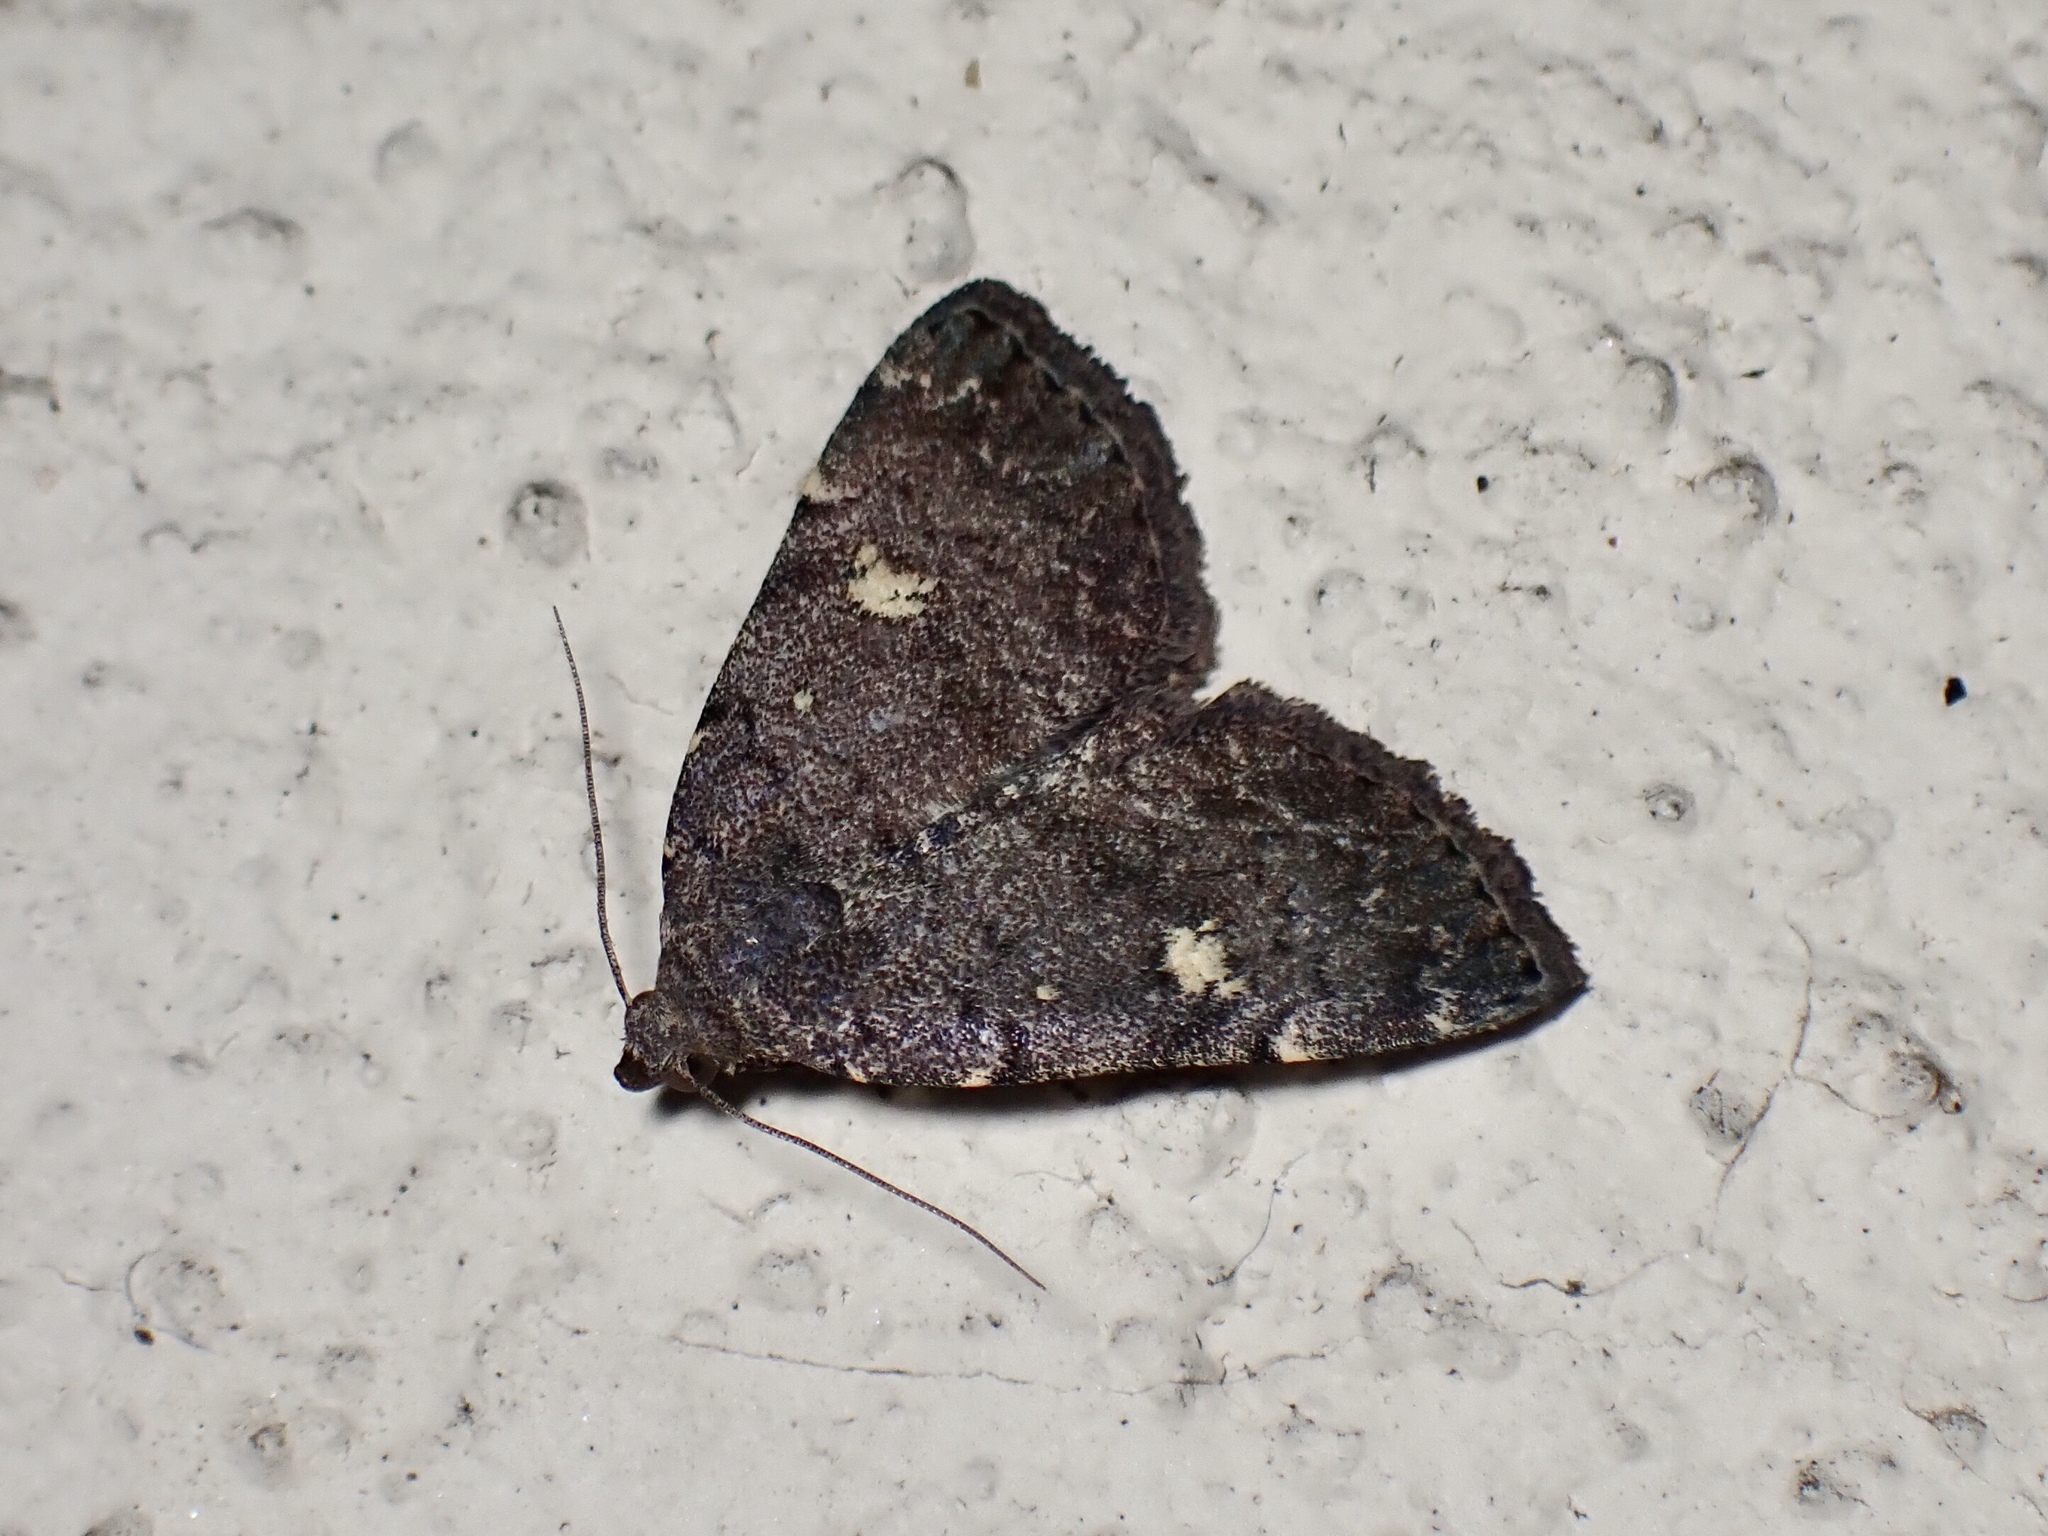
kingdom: Animalia
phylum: Arthropoda
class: Insecta
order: Lepidoptera
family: Erebidae
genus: Tetanolita
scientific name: Tetanolita mynesalis
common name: Smoky tetanolita moth
